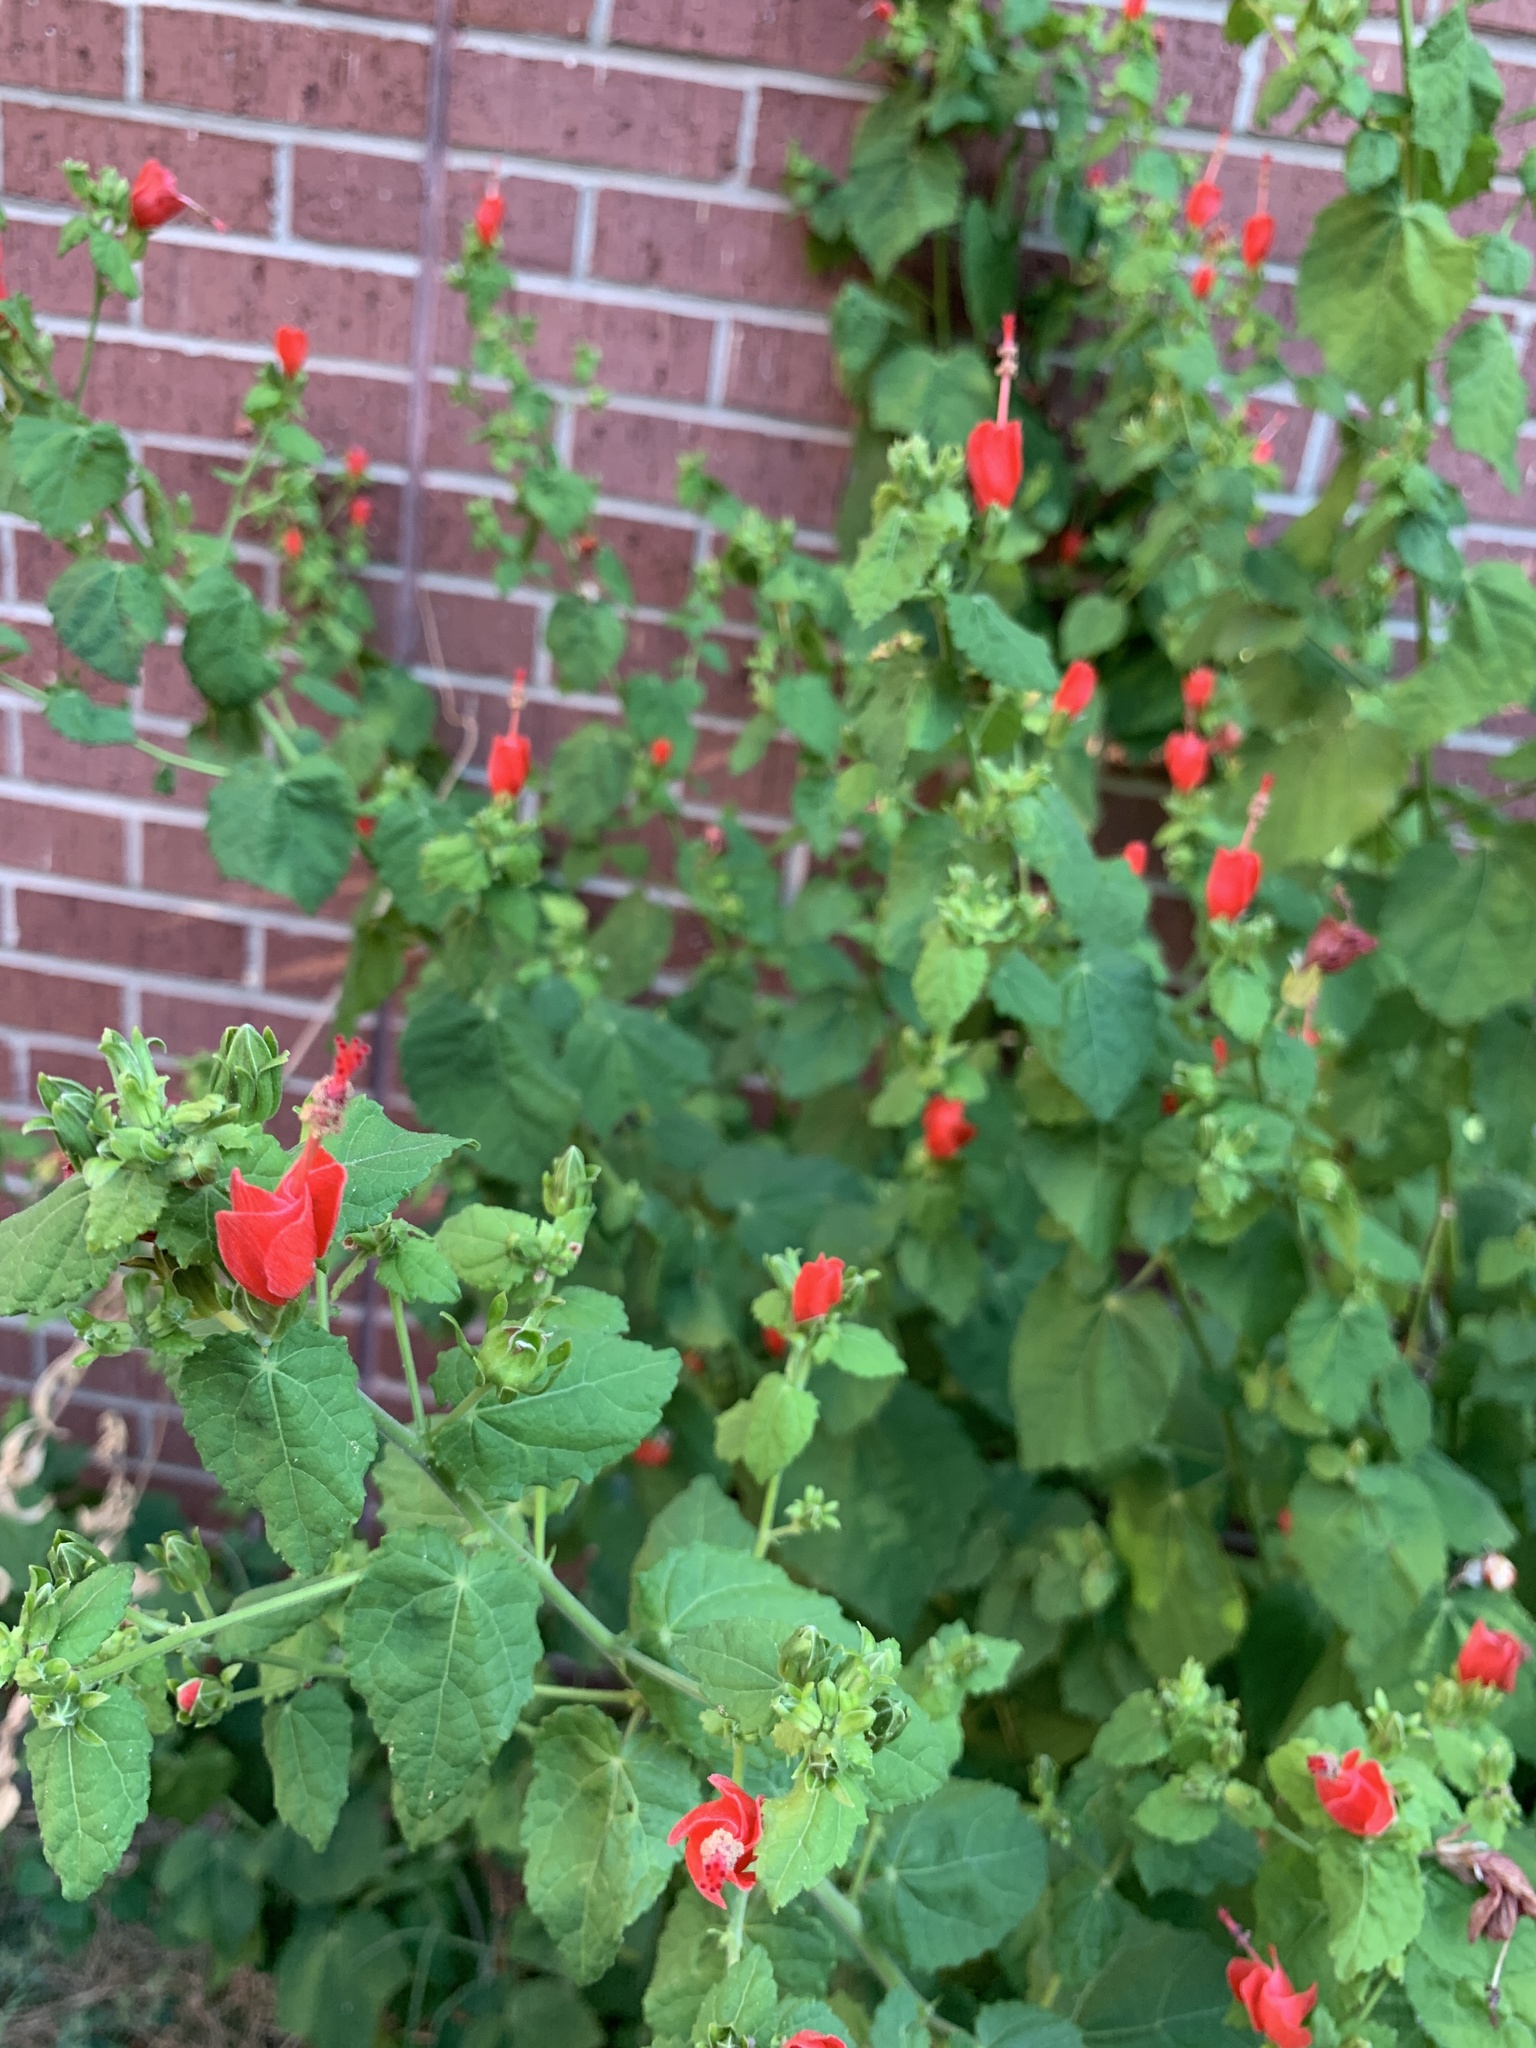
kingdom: Plantae
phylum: Tracheophyta
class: Magnoliopsida
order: Malvales
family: Malvaceae
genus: Malvaviscus
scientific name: Malvaviscus arboreus
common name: Wax mallow
